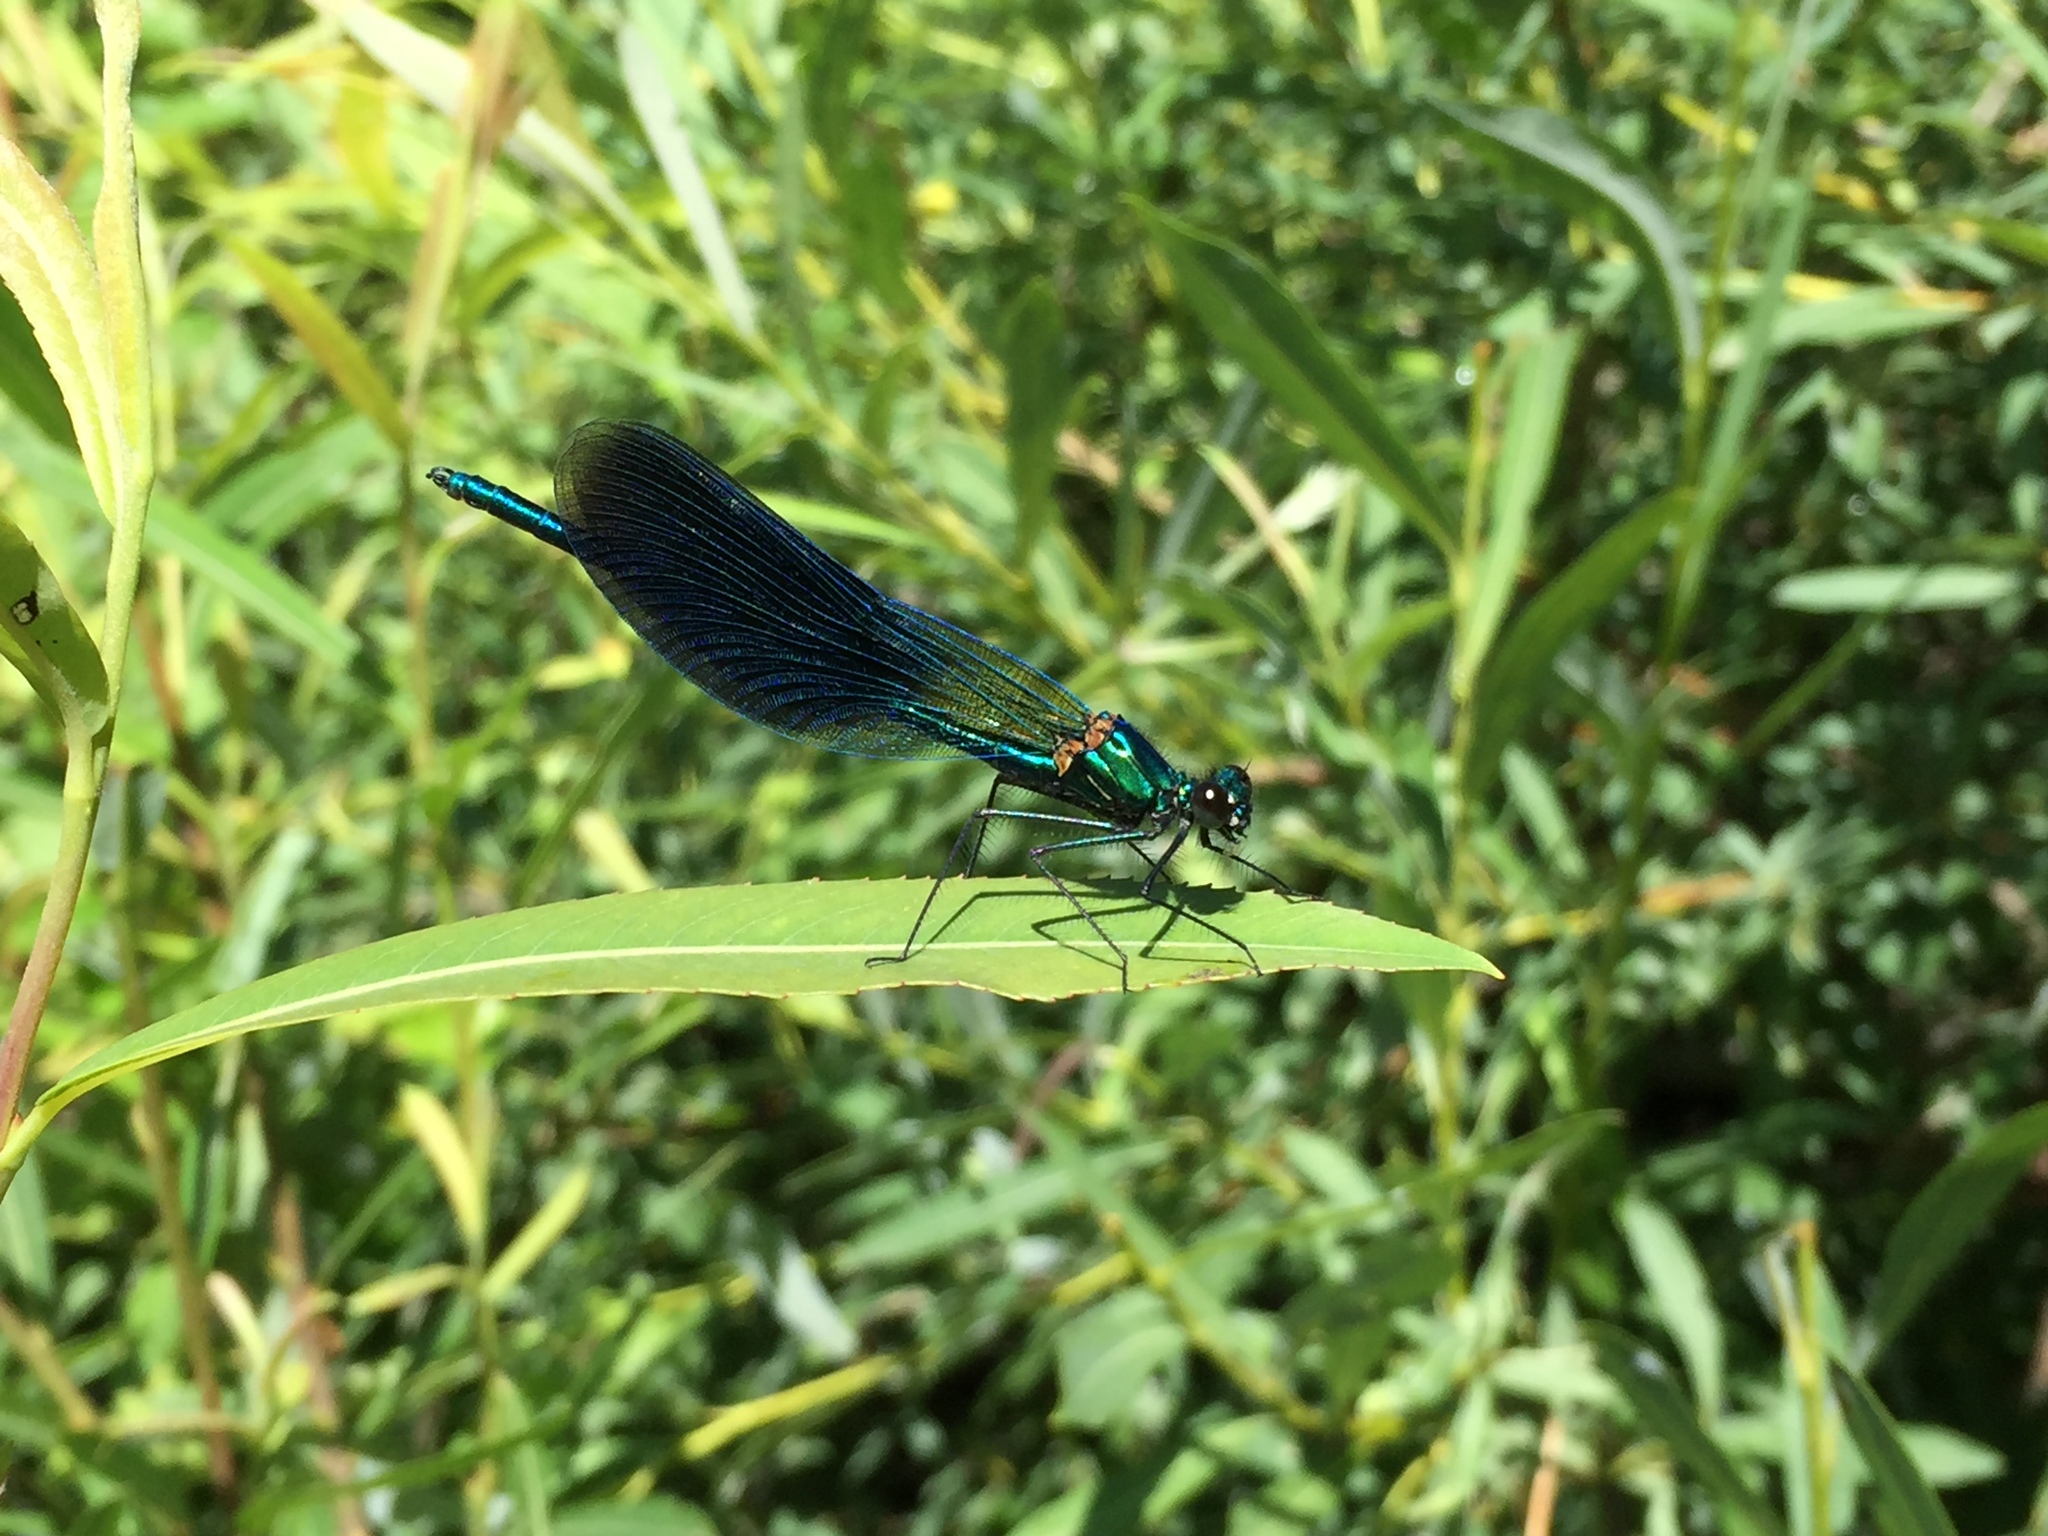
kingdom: Animalia
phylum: Arthropoda
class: Insecta
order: Odonata
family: Calopterygidae
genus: Calopteryx
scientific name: Calopteryx splendens
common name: Banded demoiselle
